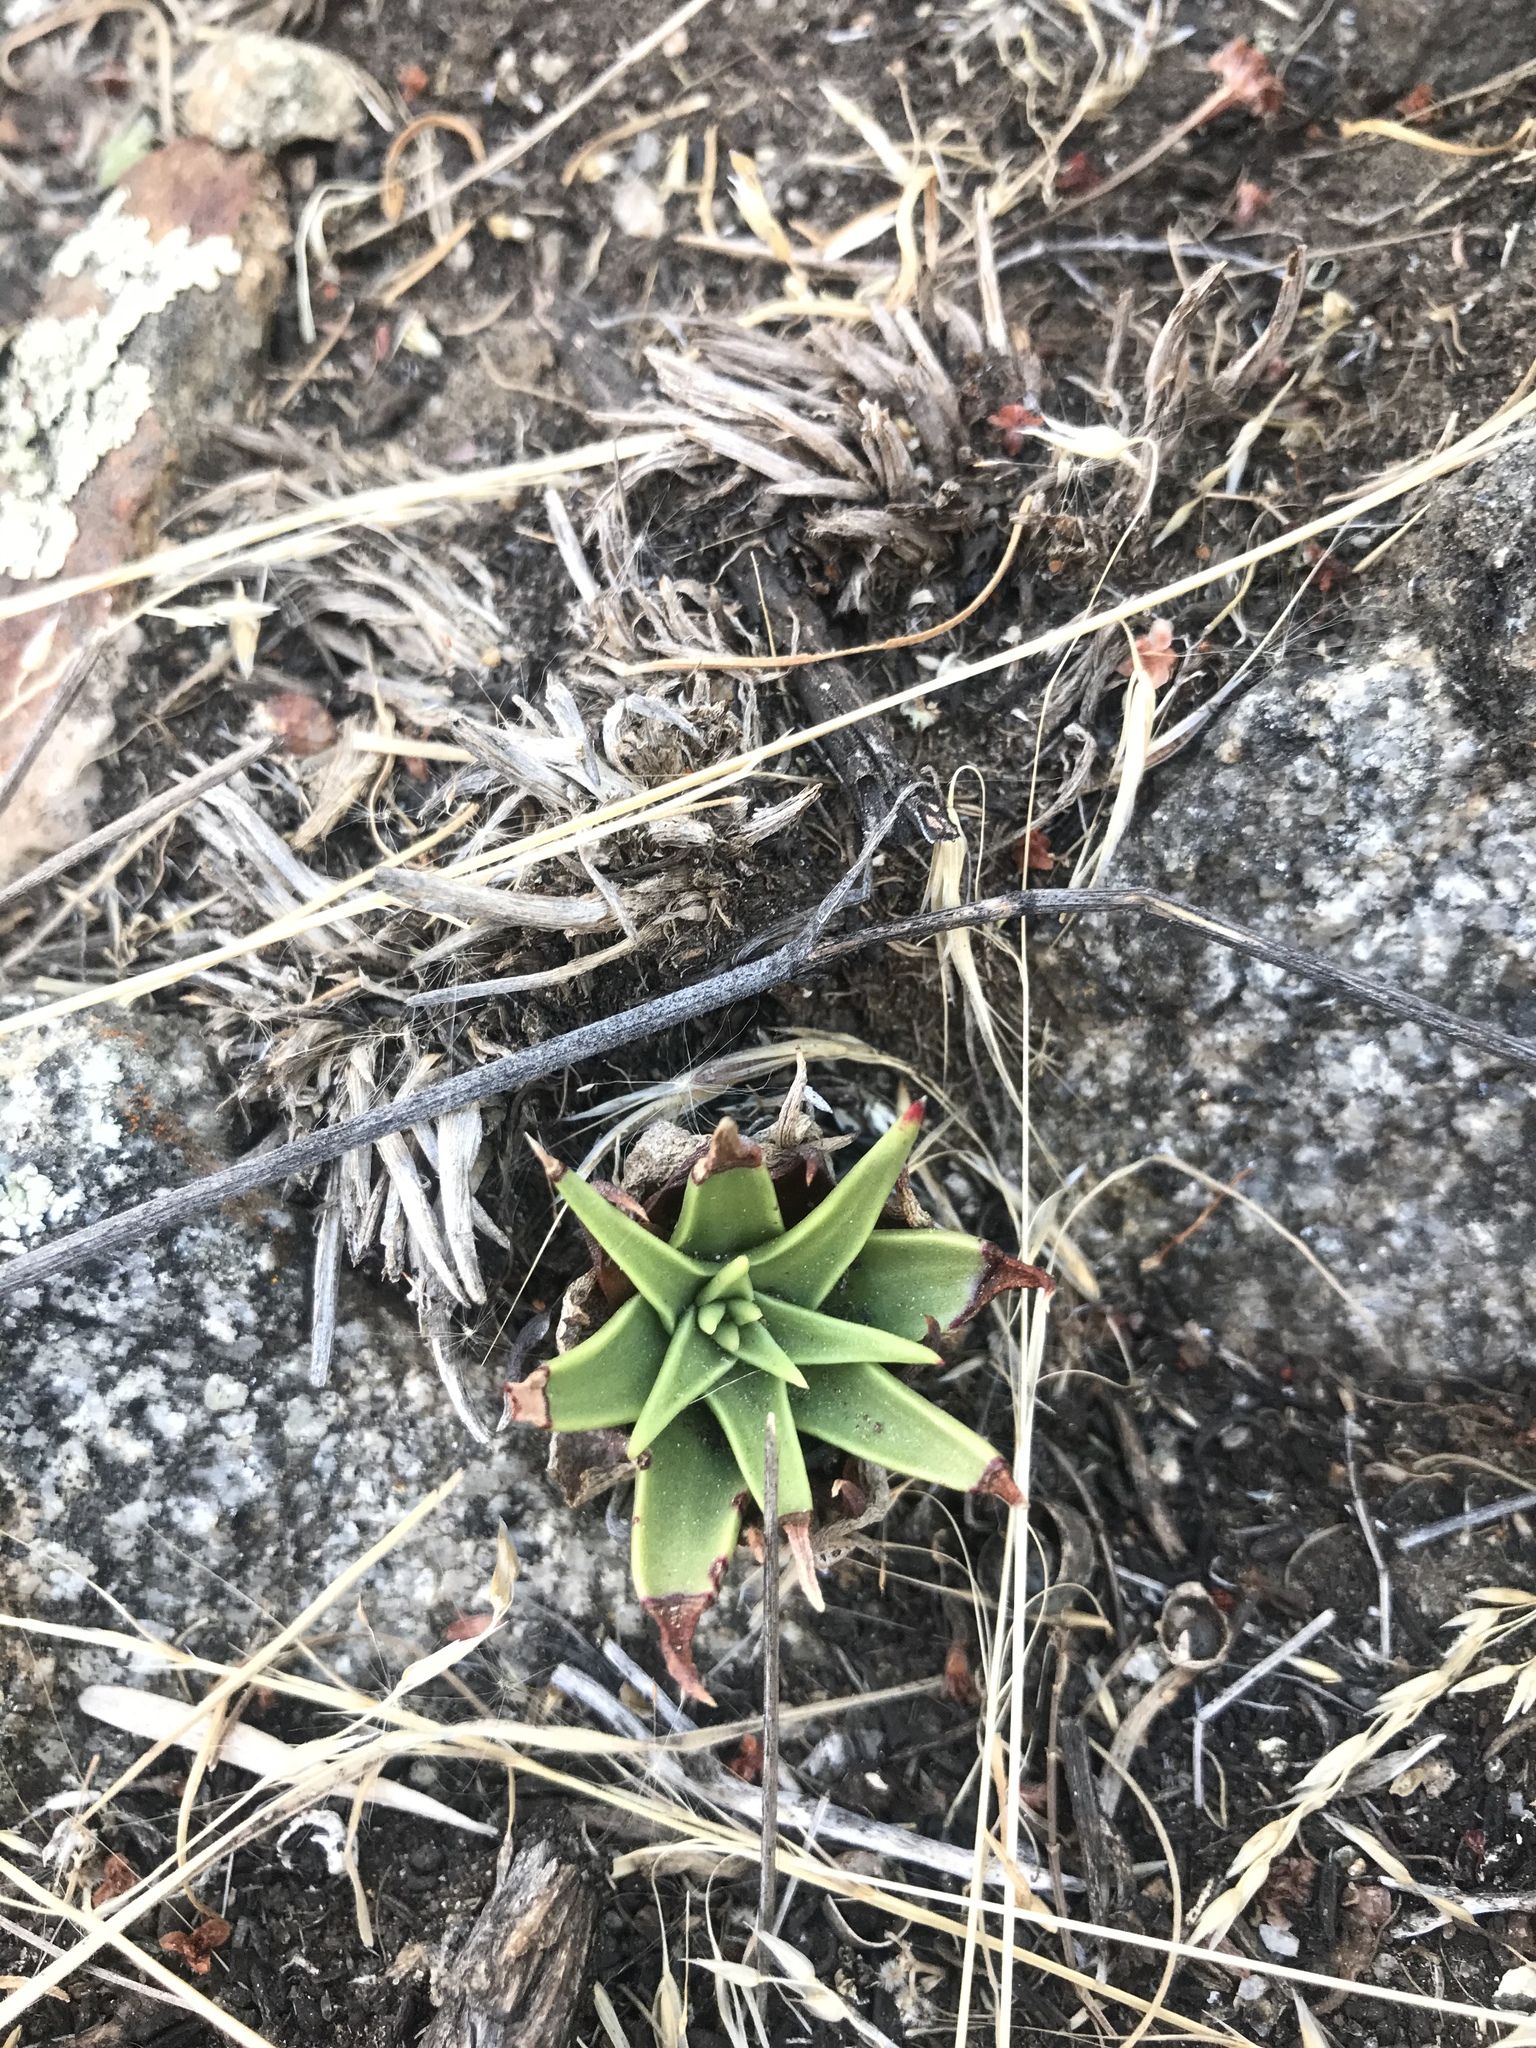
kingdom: Plantae
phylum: Tracheophyta
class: Magnoliopsida
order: Saxifragales
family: Crassulaceae
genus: Dudleya
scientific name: Dudleya lanceolata
